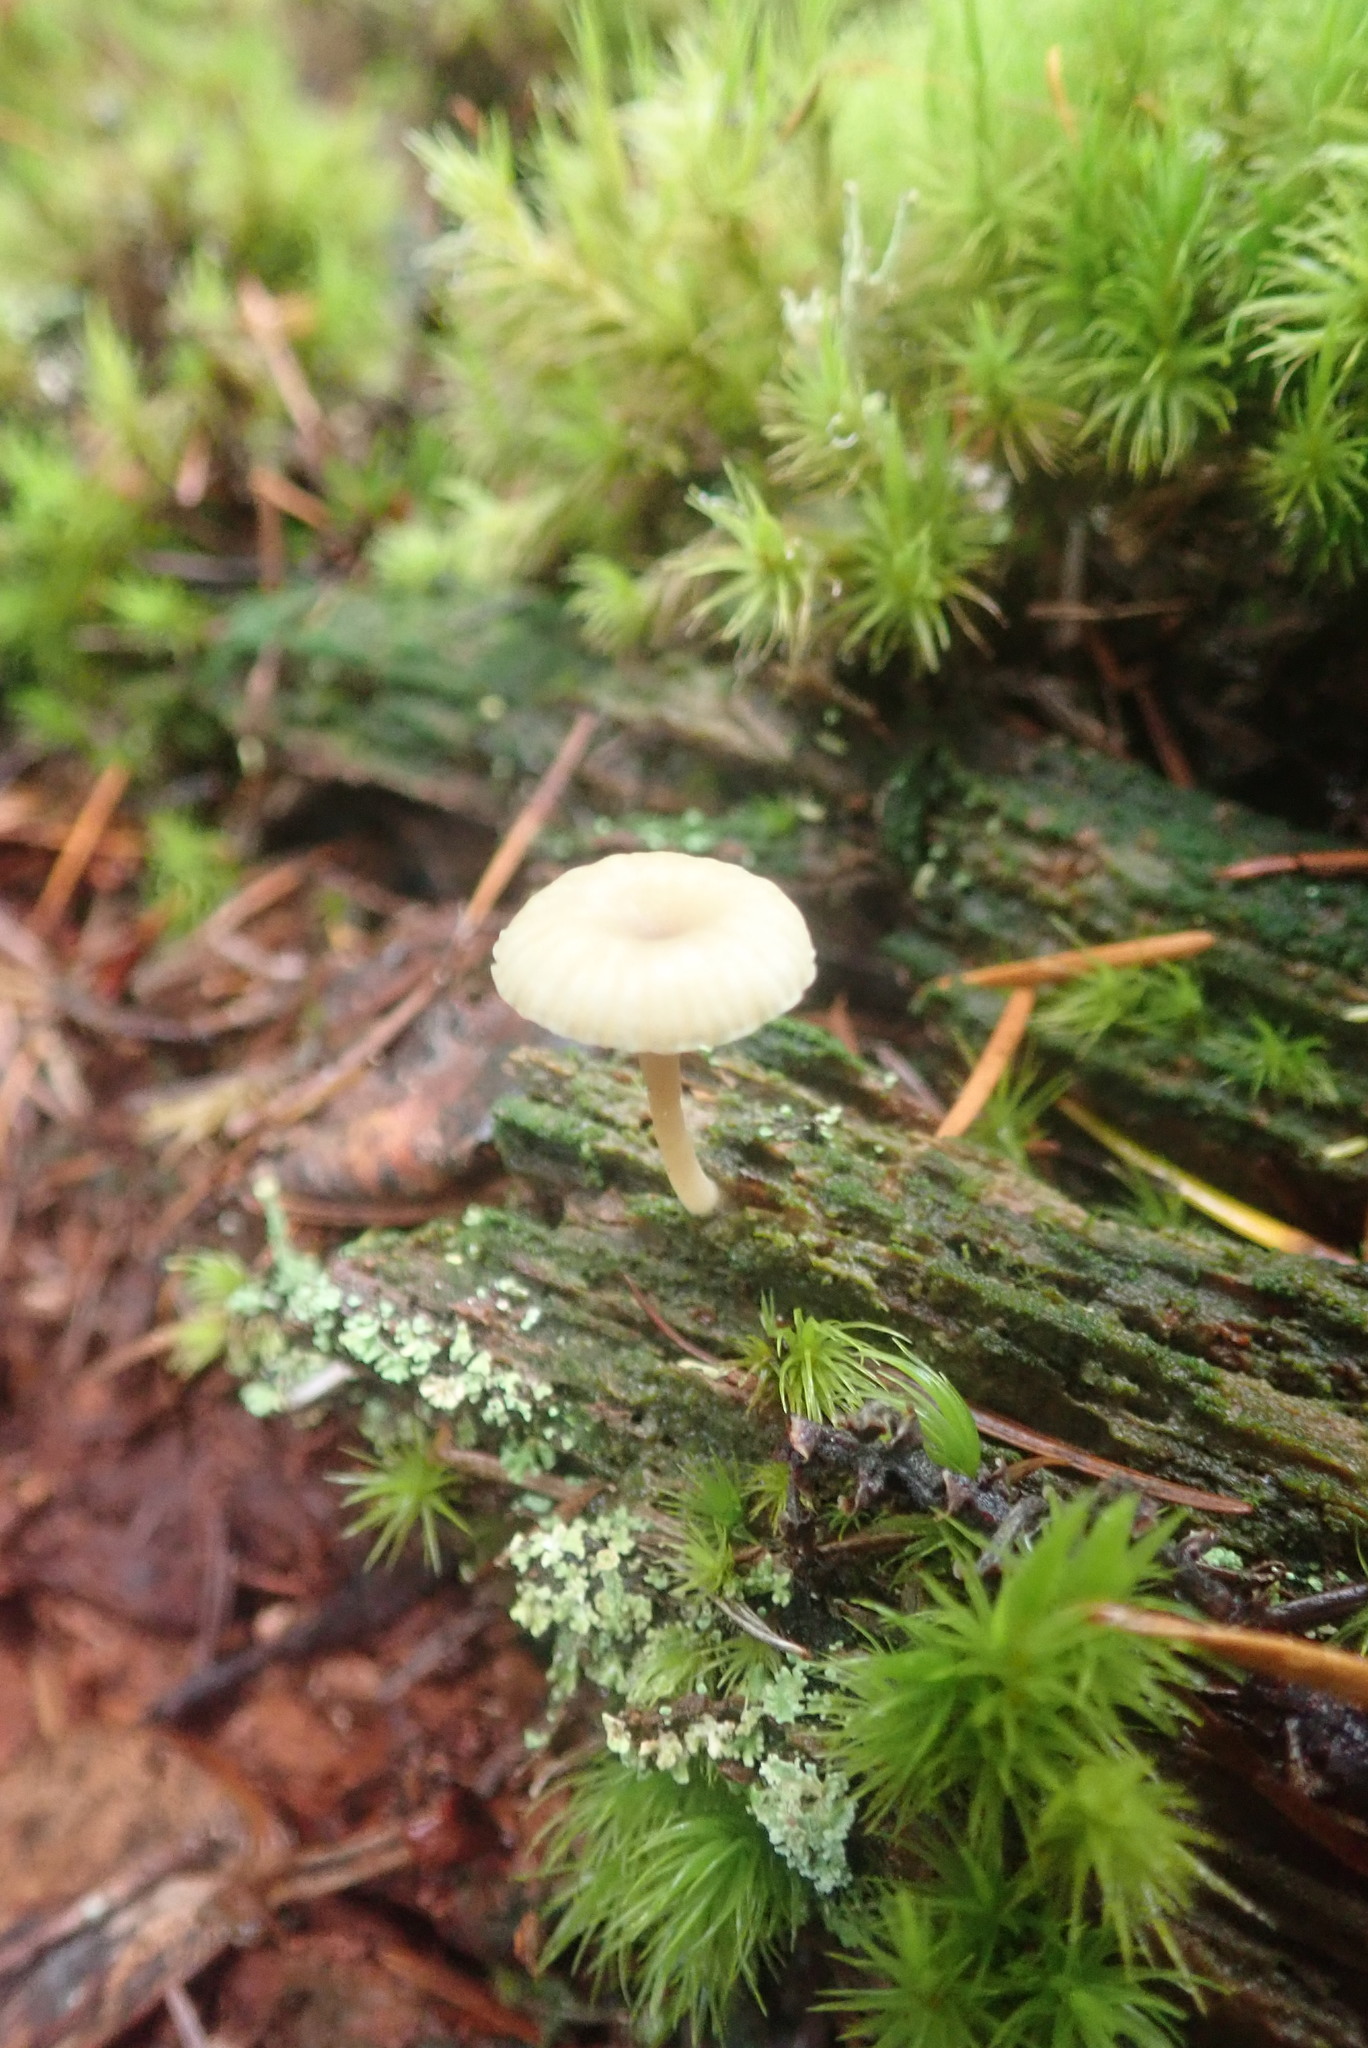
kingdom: Fungi
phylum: Basidiomycota
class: Agaricomycetes
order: Agaricales
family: Hygrophoraceae
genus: Lichenomphalia
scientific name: Lichenomphalia
